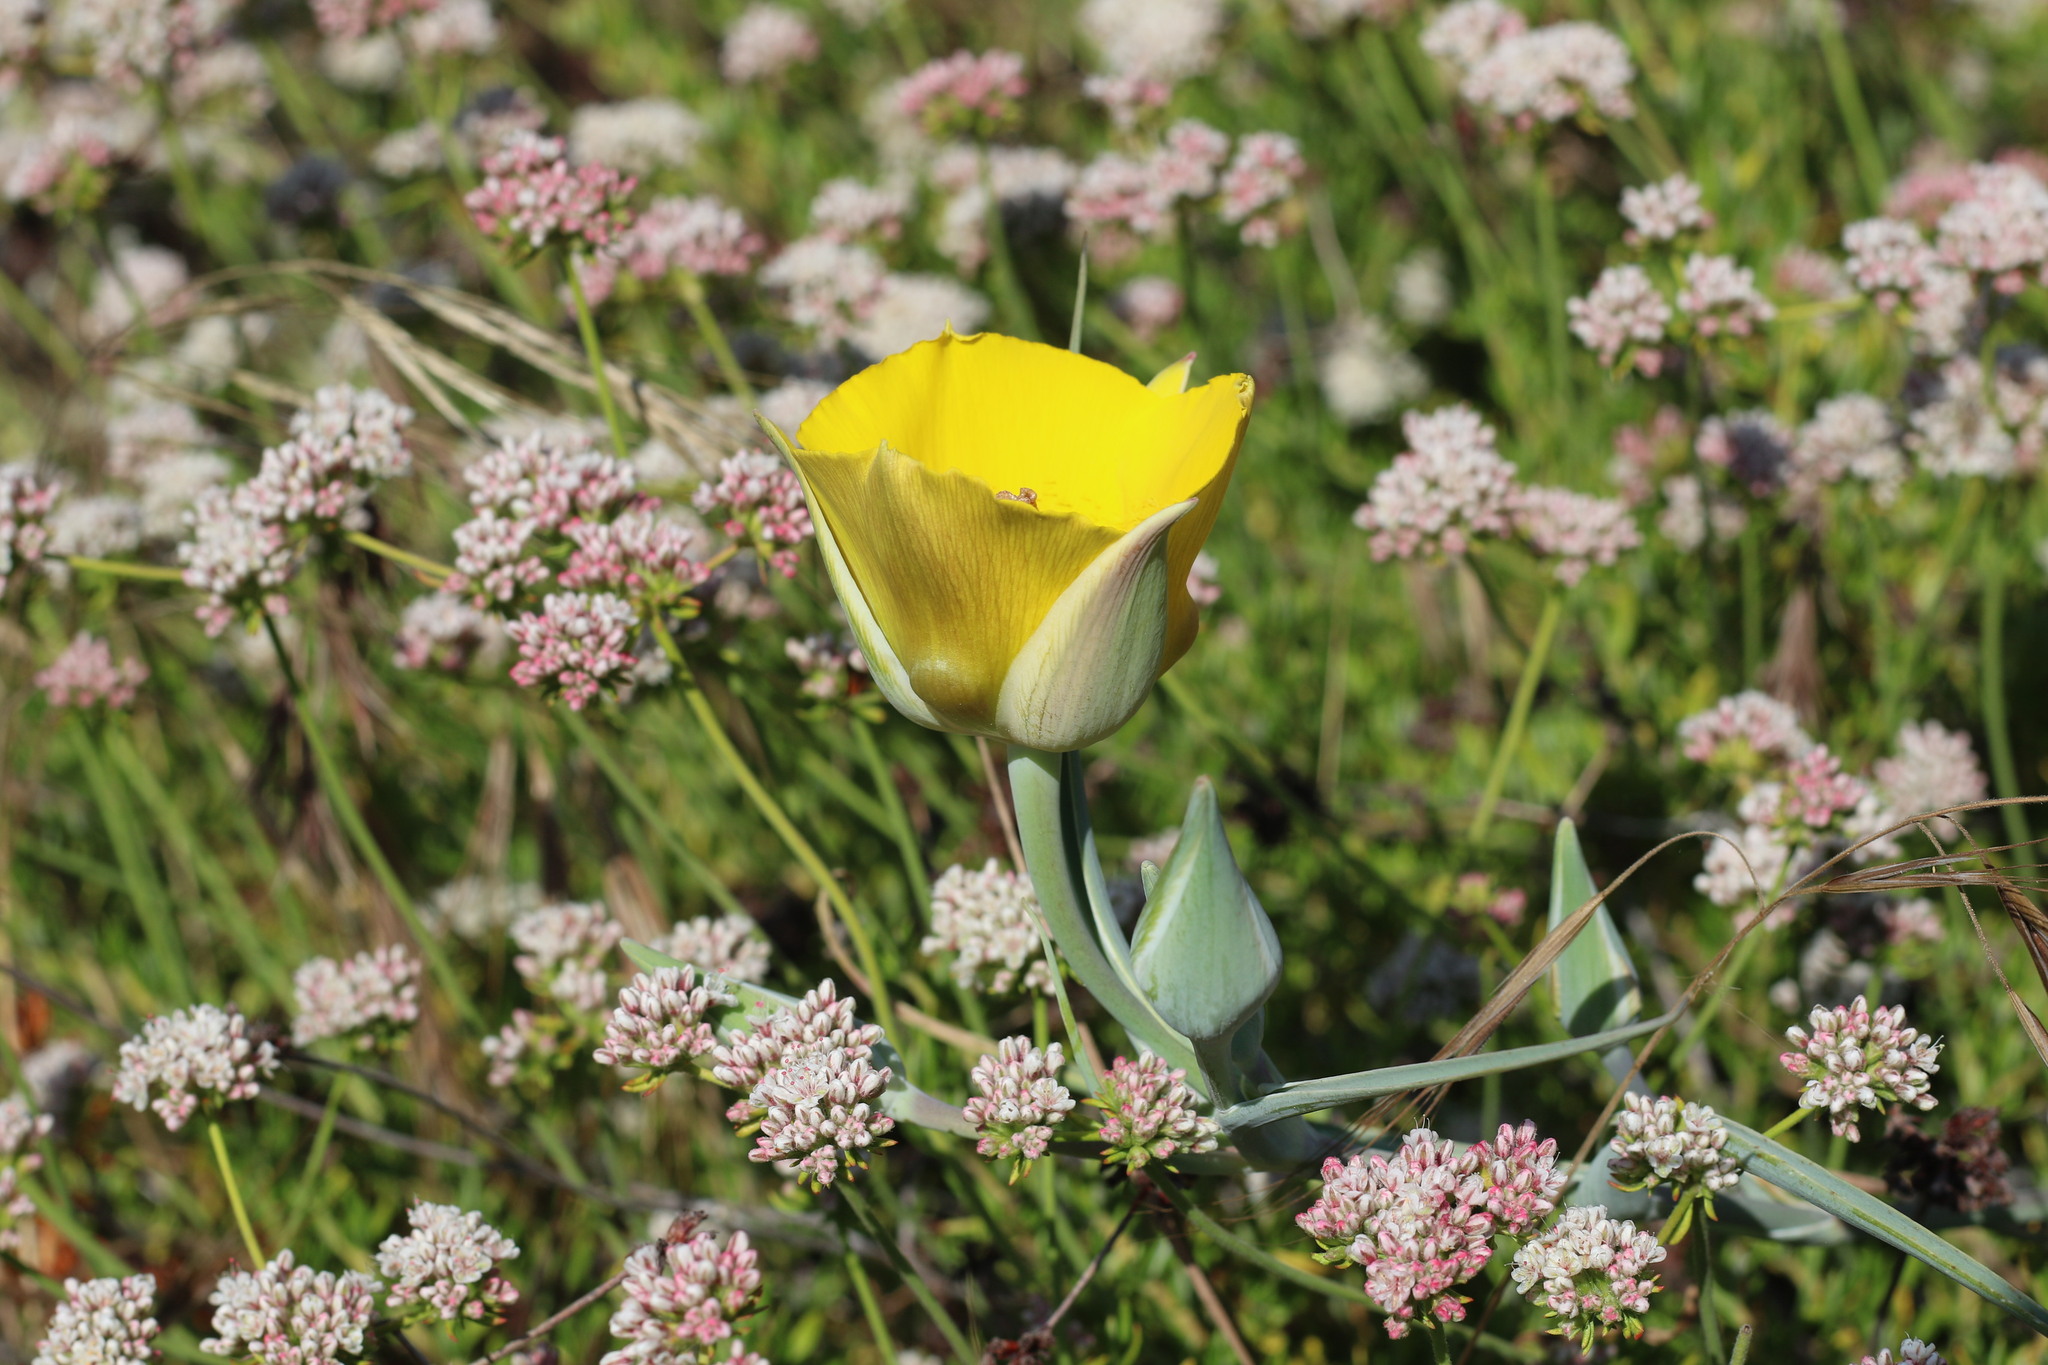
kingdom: Plantae
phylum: Tracheophyta
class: Liliopsida
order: Liliales
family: Liliaceae
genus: Calochortus
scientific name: Calochortus clavatus
